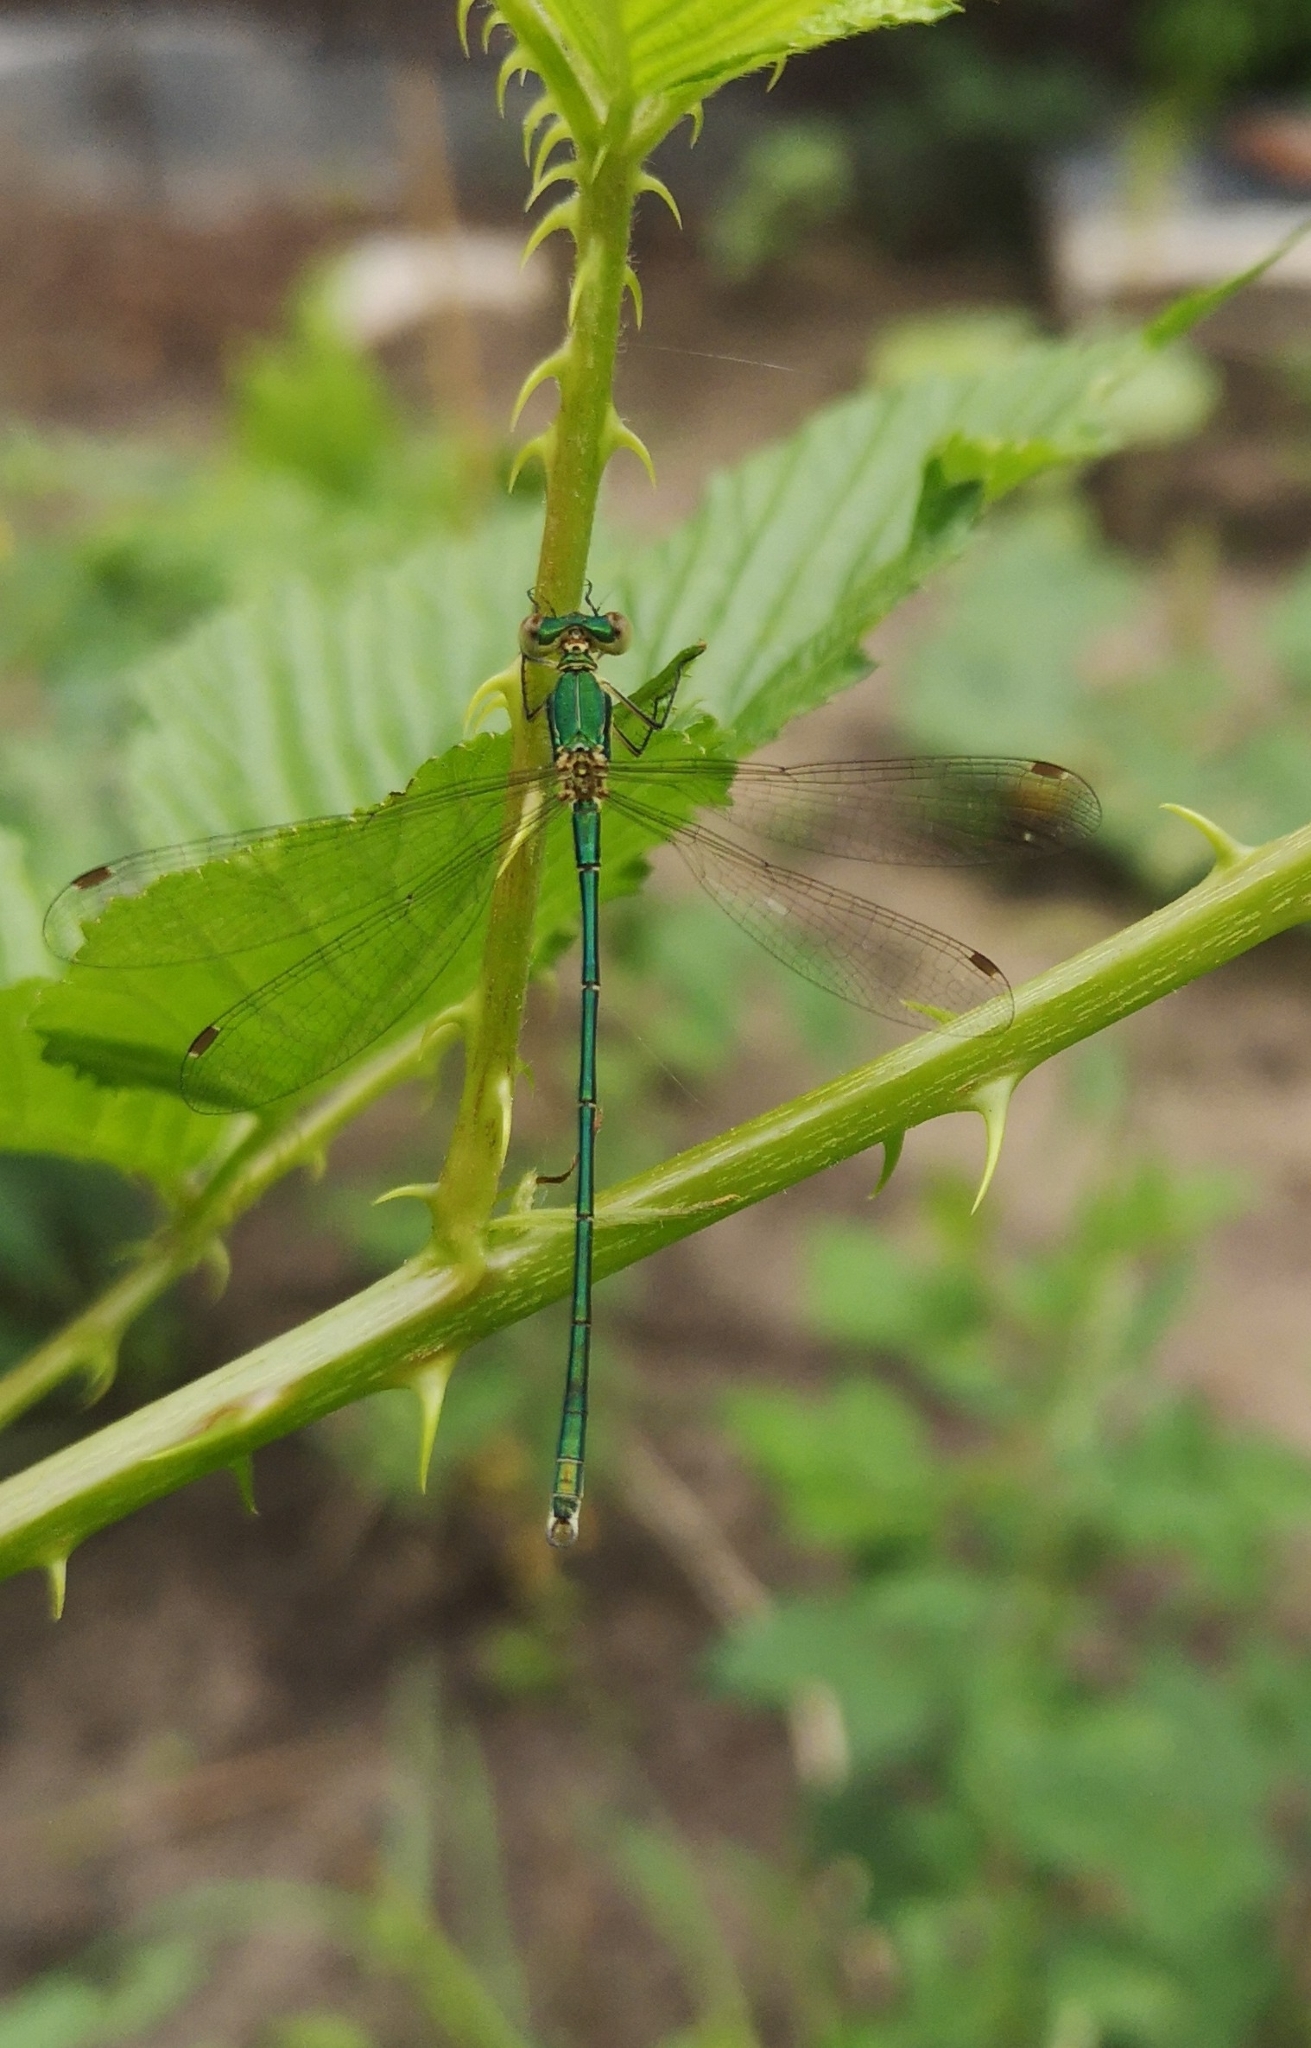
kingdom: Animalia
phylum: Arthropoda
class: Insecta
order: Odonata
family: Lestidae
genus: Lestes
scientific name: Lestes virens
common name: Small emerald spreadwing
